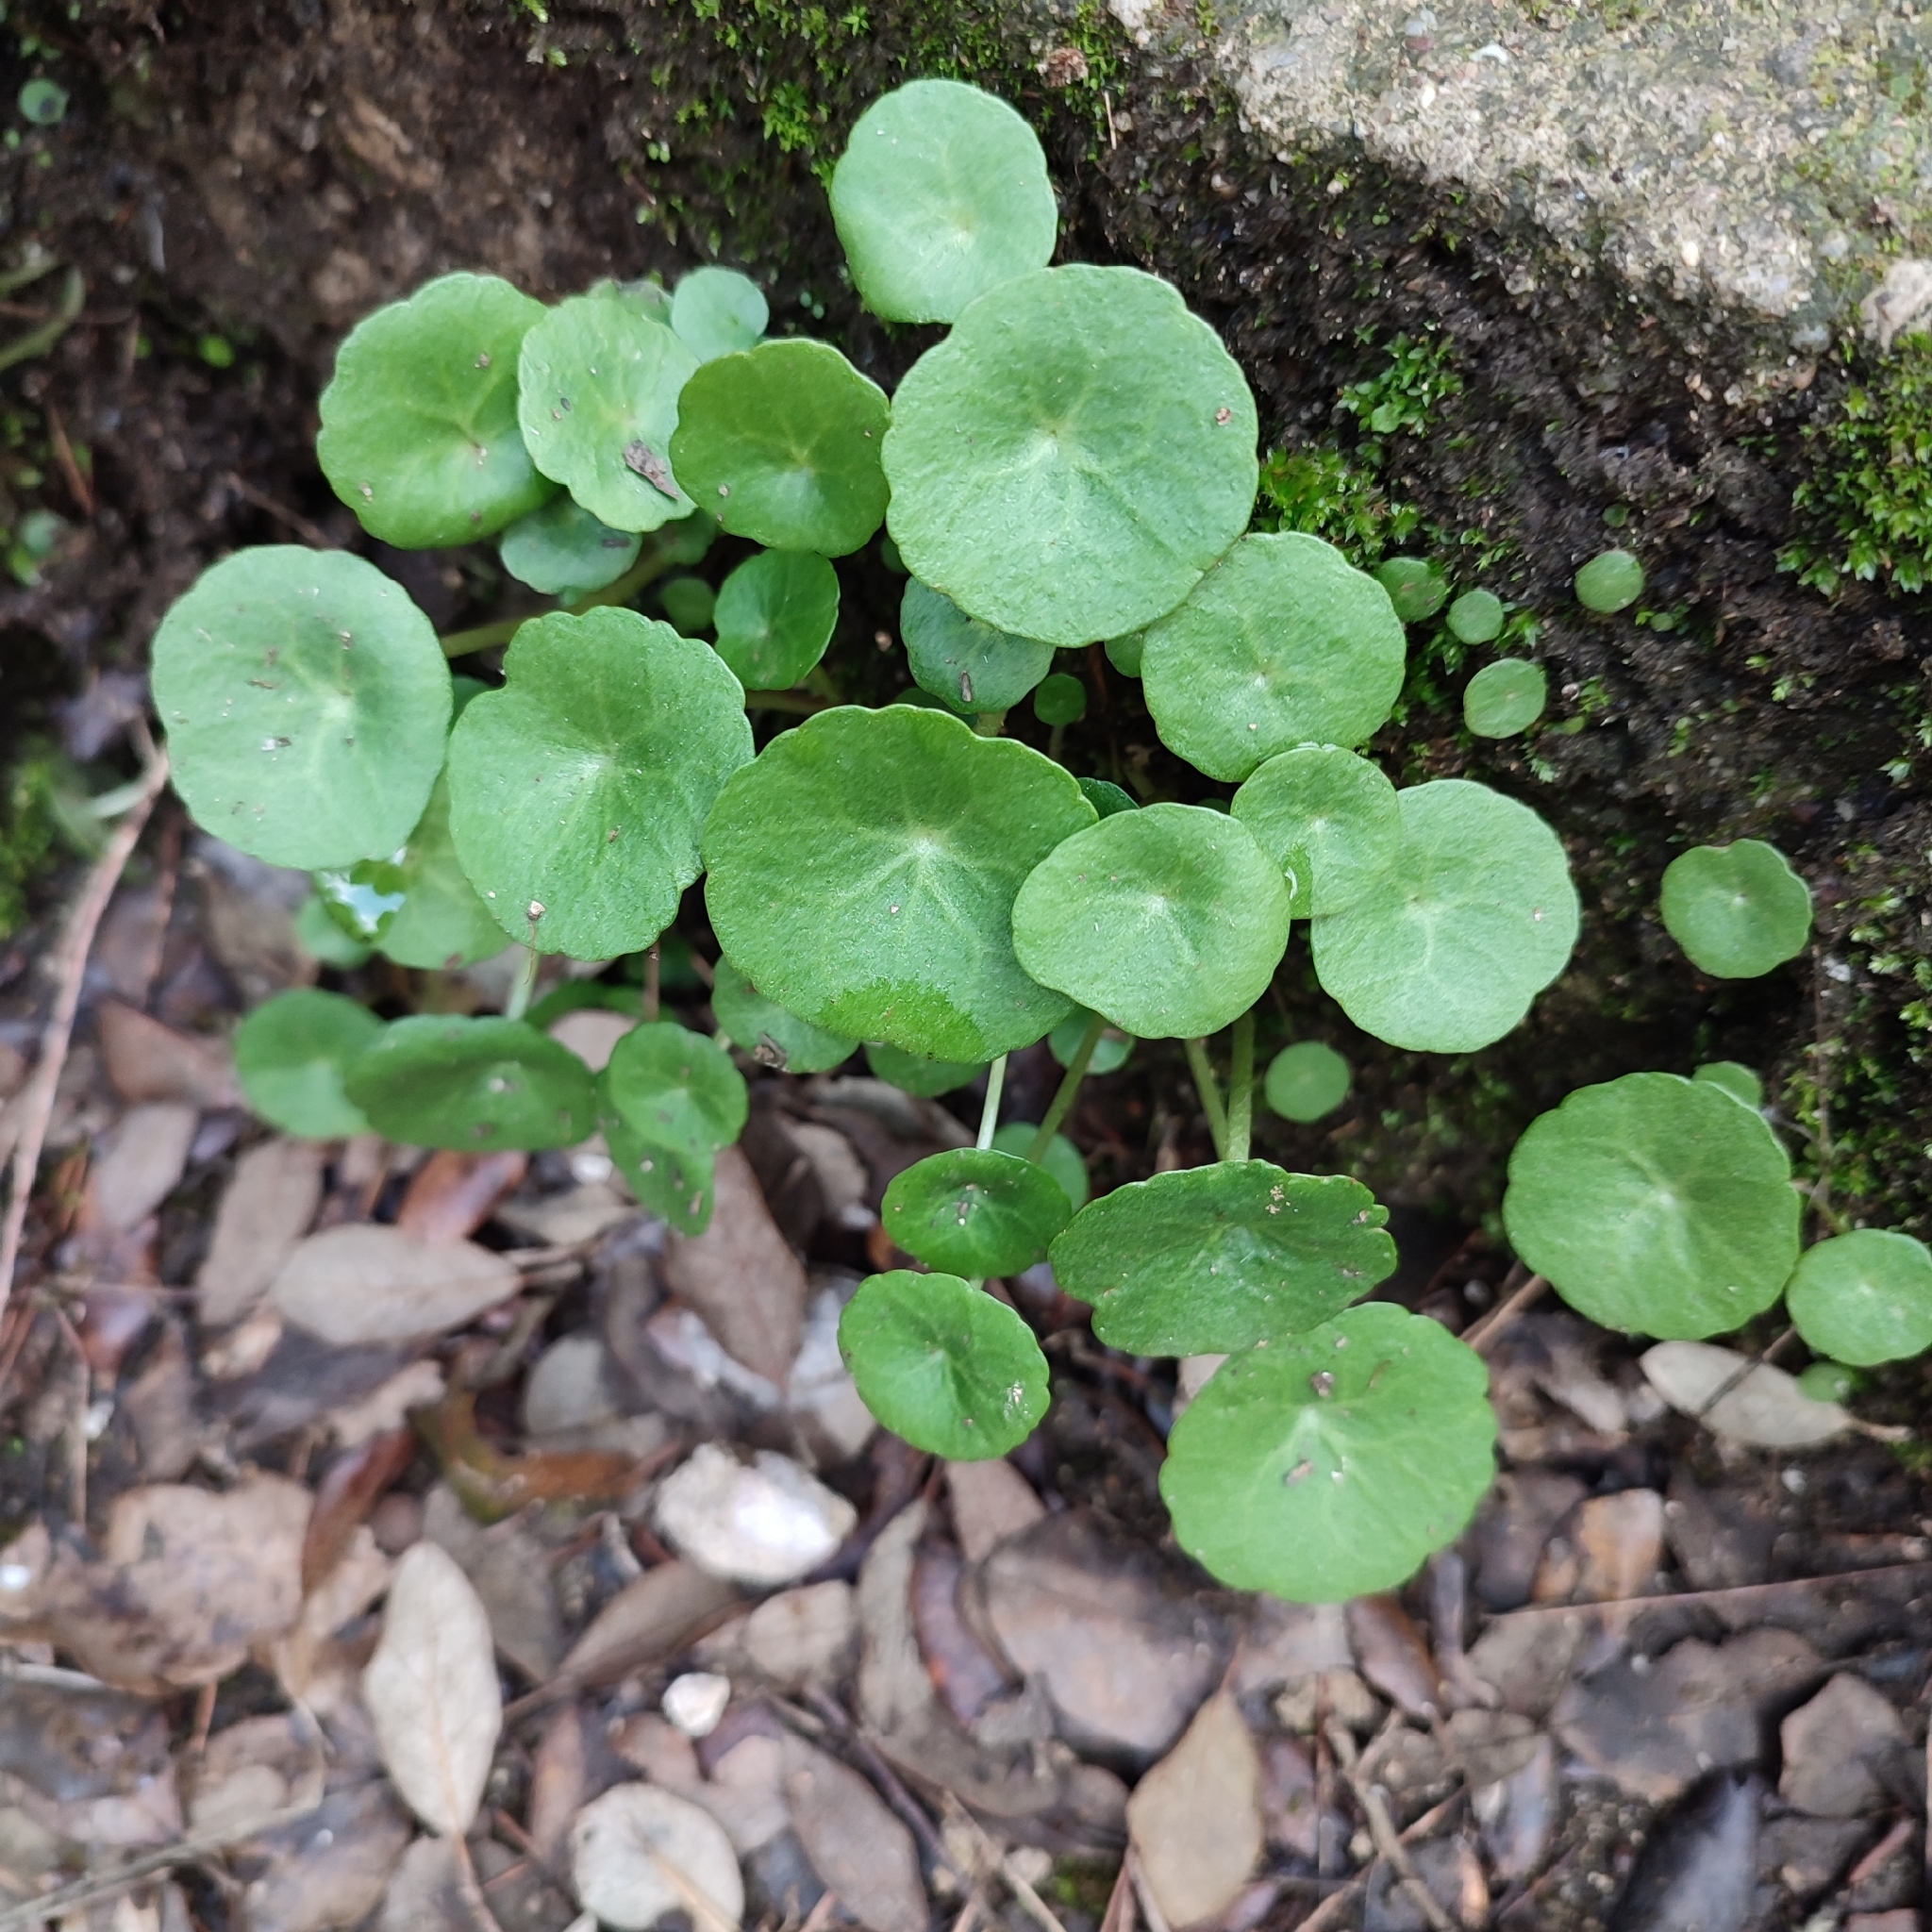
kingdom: Plantae
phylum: Tracheophyta
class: Magnoliopsida
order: Saxifragales
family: Crassulaceae
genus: Umbilicus
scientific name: Umbilicus rupestris
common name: Navelwort
